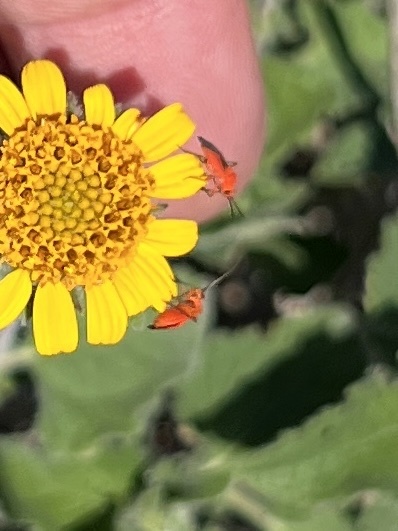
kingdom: Animalia
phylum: Arthropoda
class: Insecta
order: Hemiptera
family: Miridae
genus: Oncerometopus
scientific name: Oncerometopus nigriclavus
